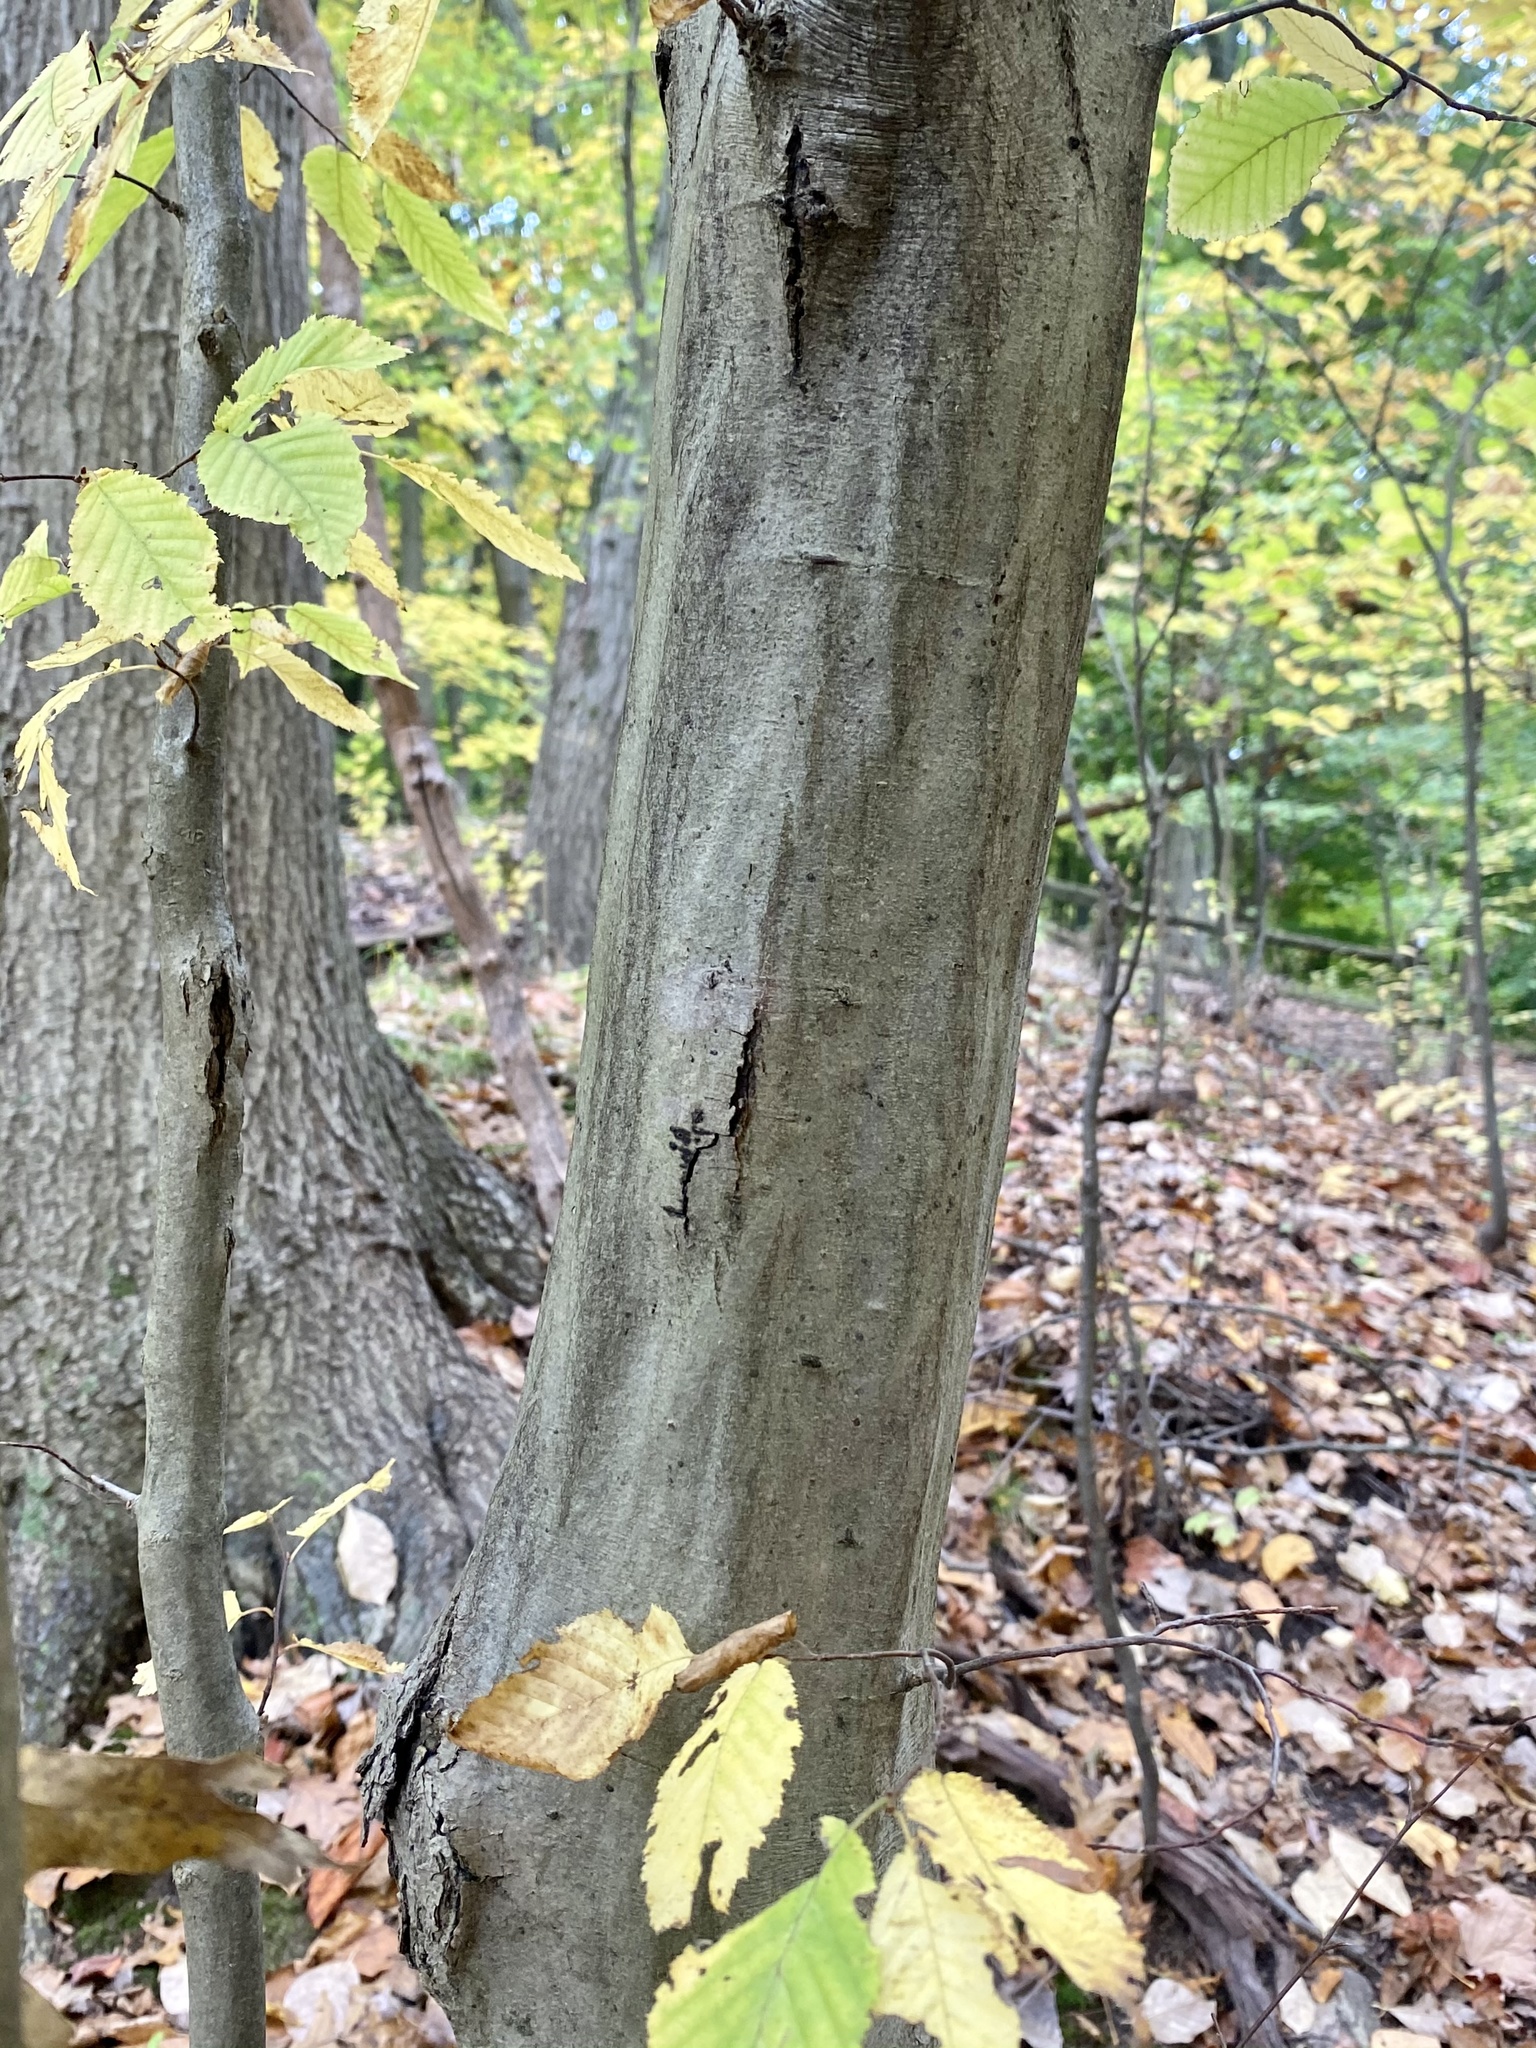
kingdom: Plantae
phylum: Tracheophyta
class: Magnoliopsida
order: Fagales
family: Betulaceae
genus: Carpinus
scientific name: Carpinus caroliniana
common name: American hornbeam
